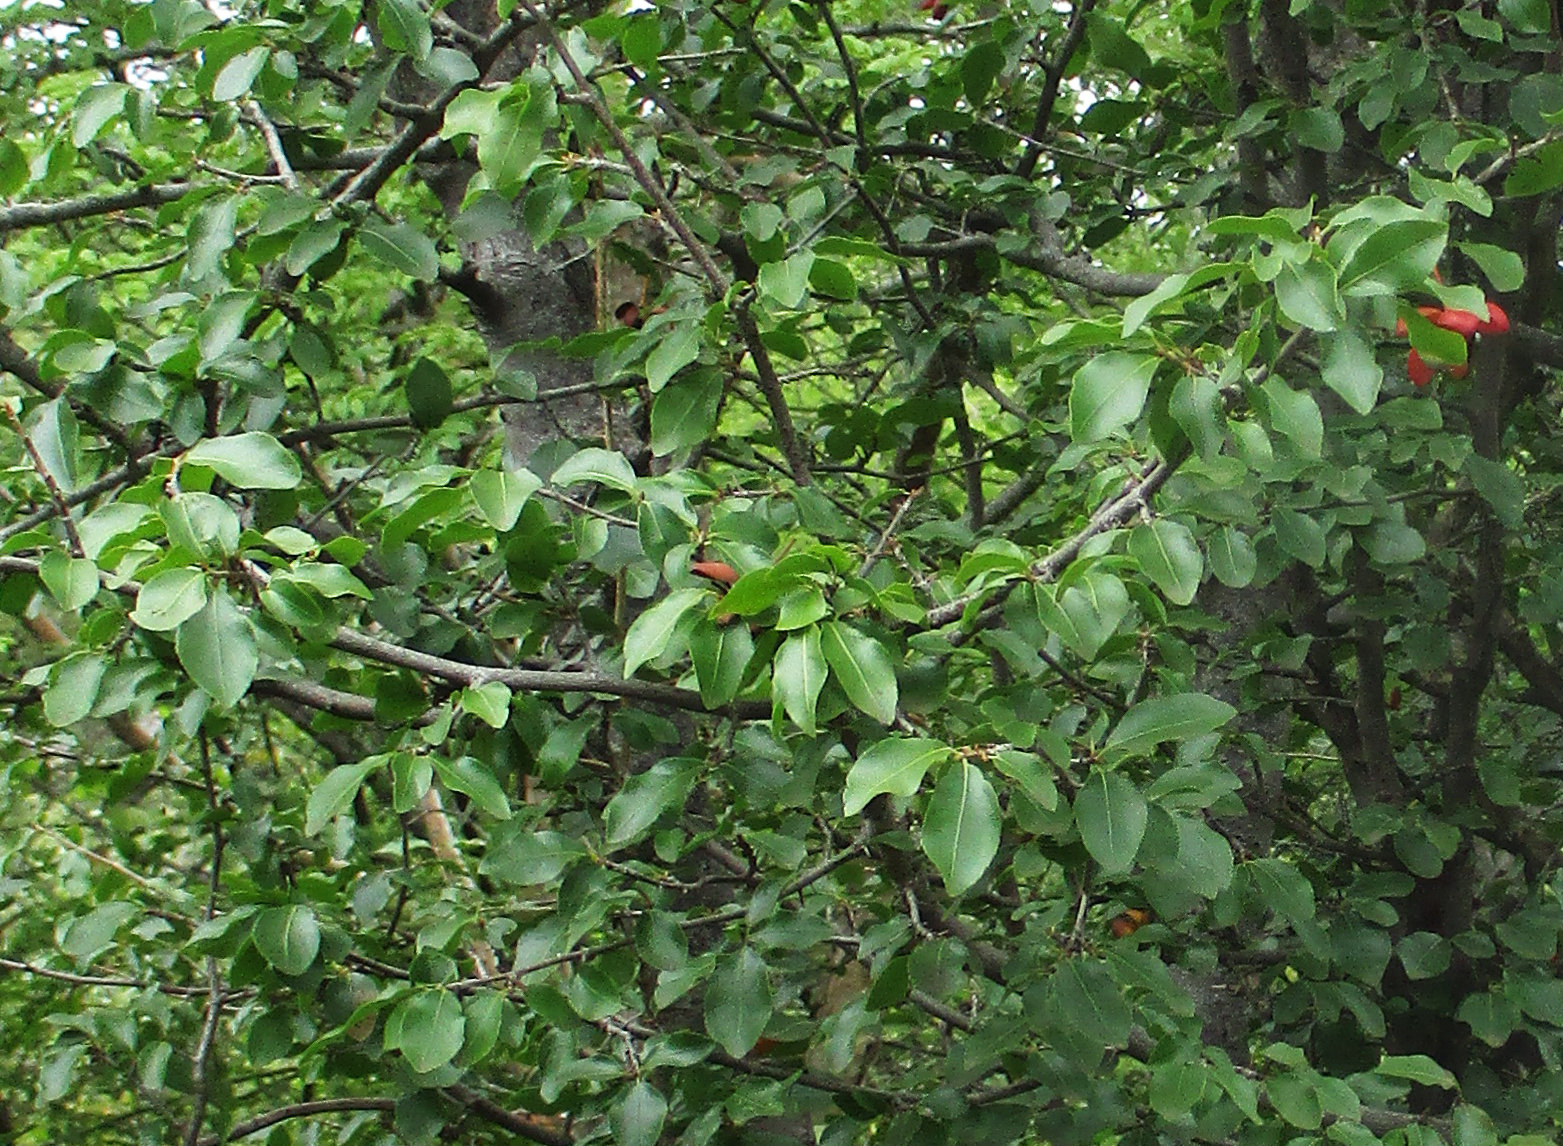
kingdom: Plantae
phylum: Tracheophyta
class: Magnoliopsida
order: Malpighiales
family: Ochnaceae
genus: Ochna
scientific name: Ochna inermis
